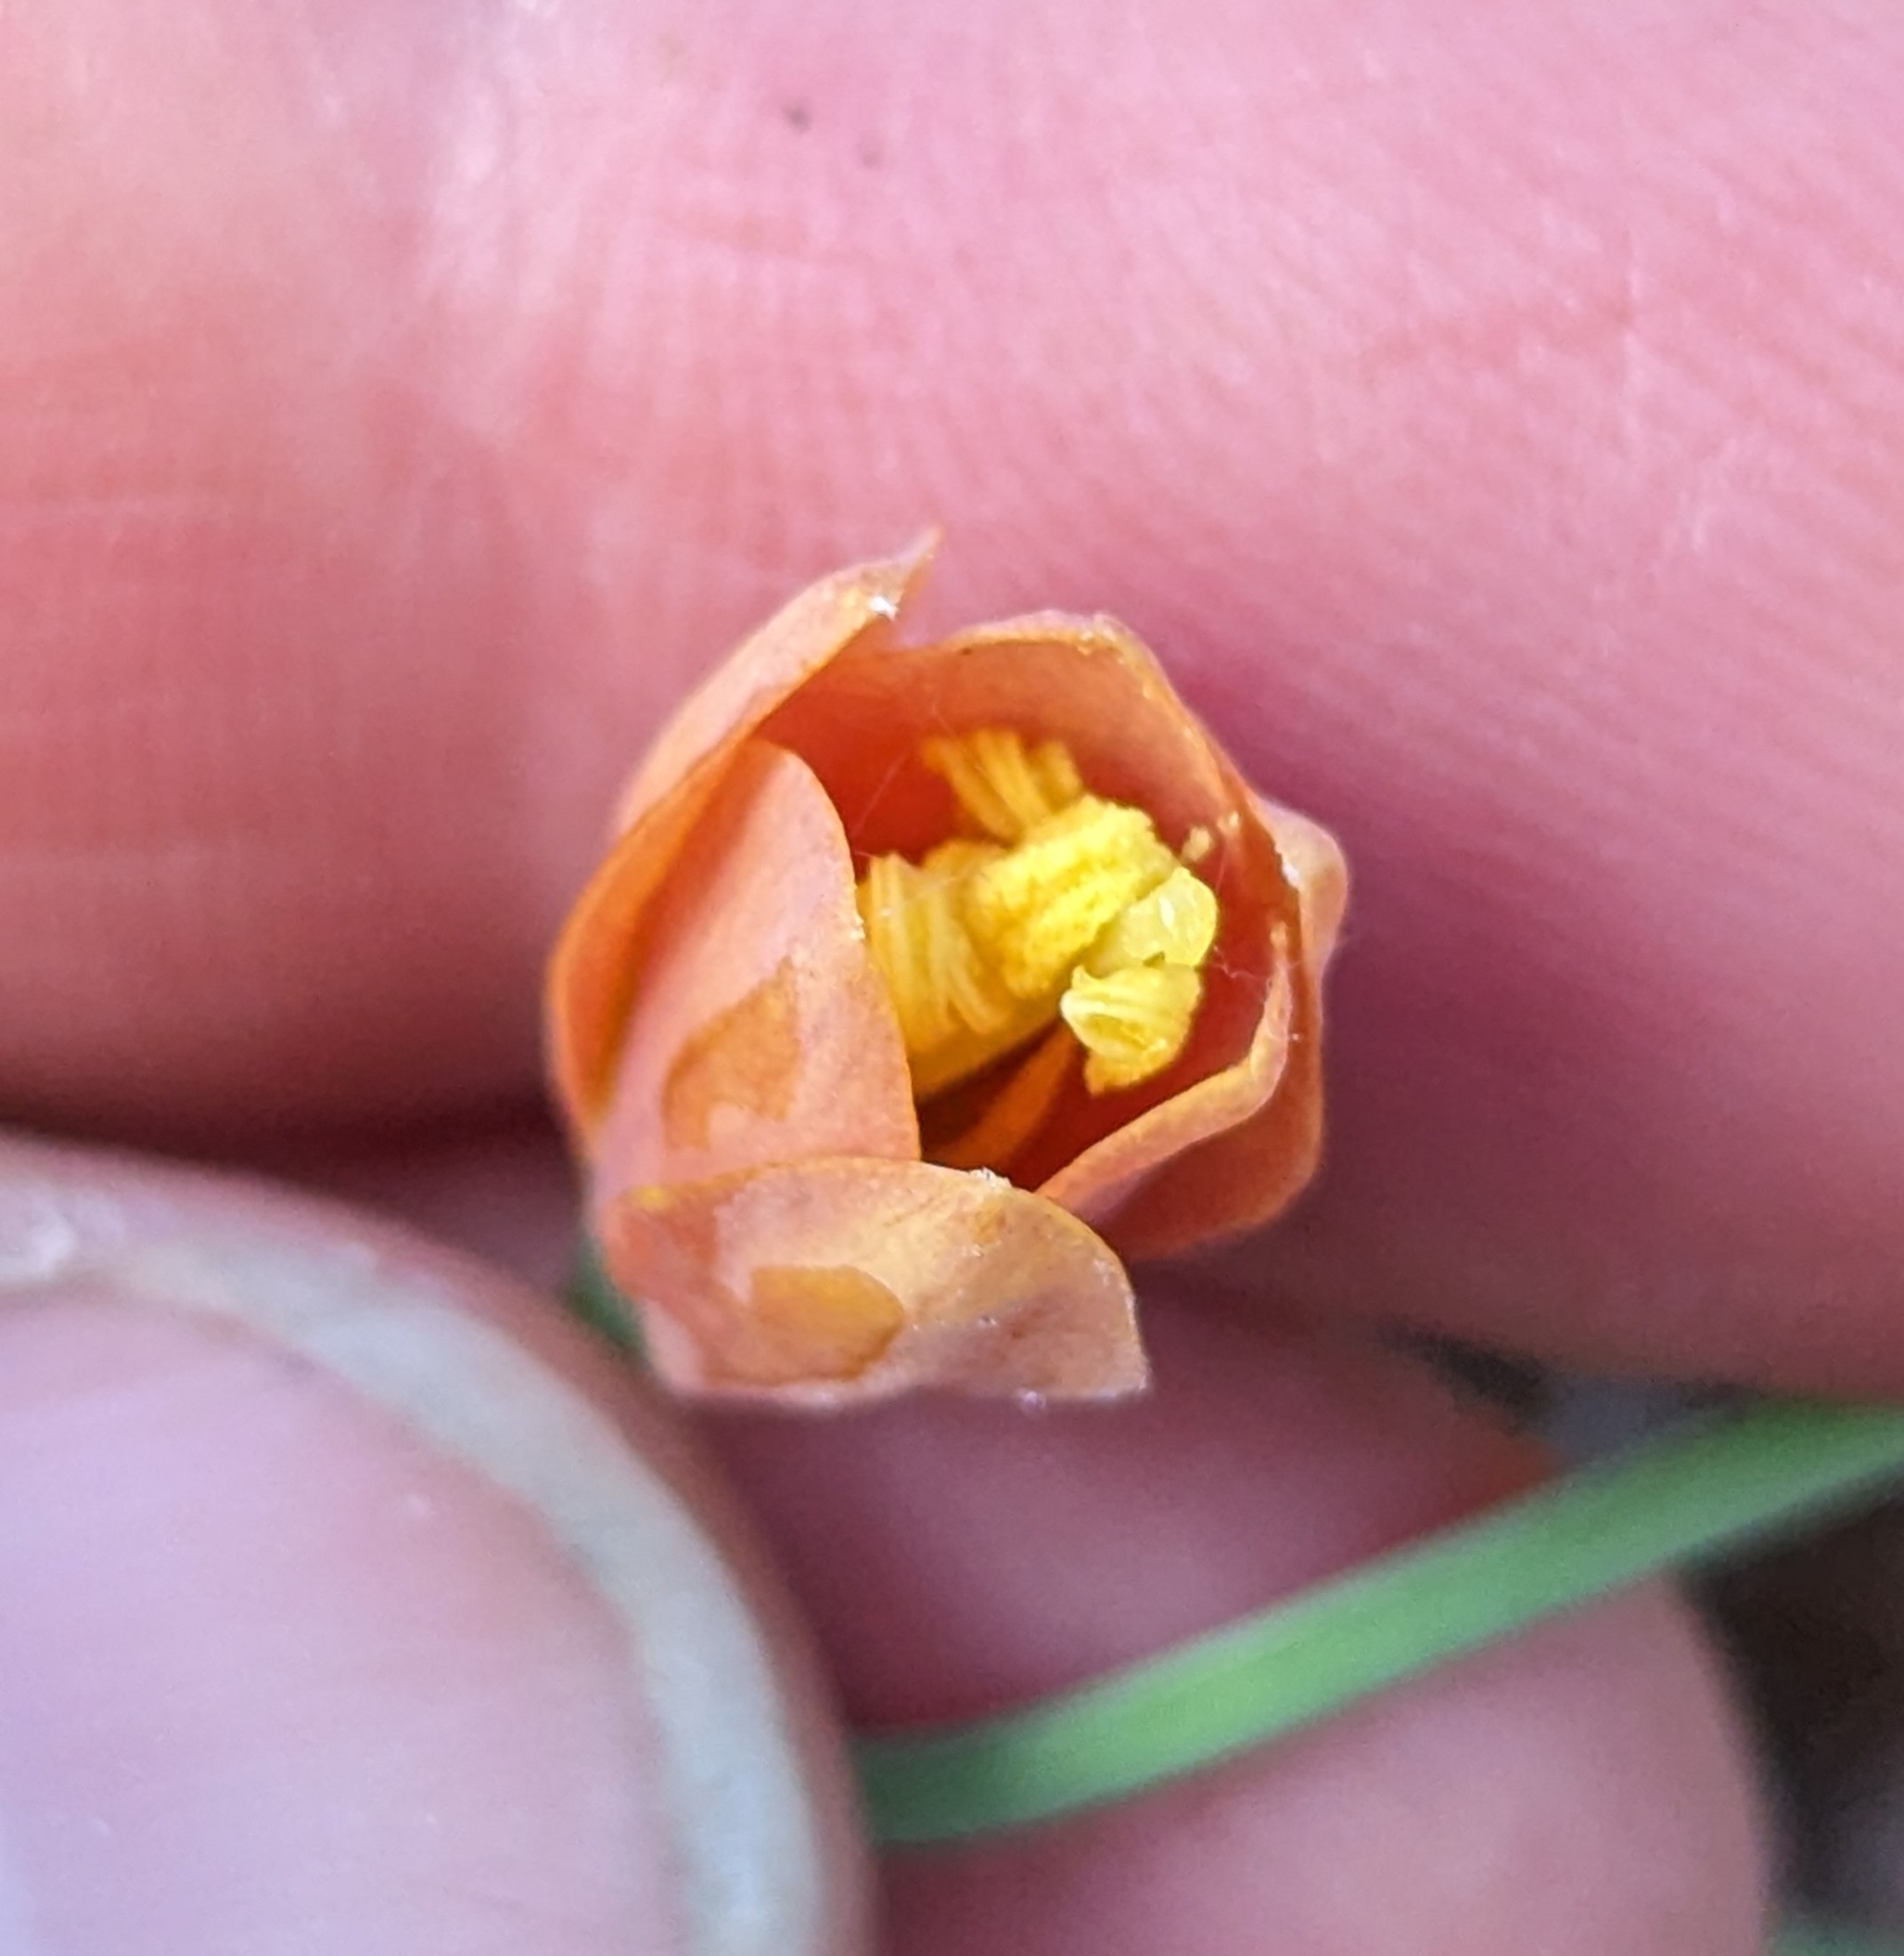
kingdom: Plantae
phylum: Tracheophyta
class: Liliopsida
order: Liliales
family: Liliaceae
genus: Fritillaria
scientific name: Fritillaria pudica
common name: Yellow fritillary
